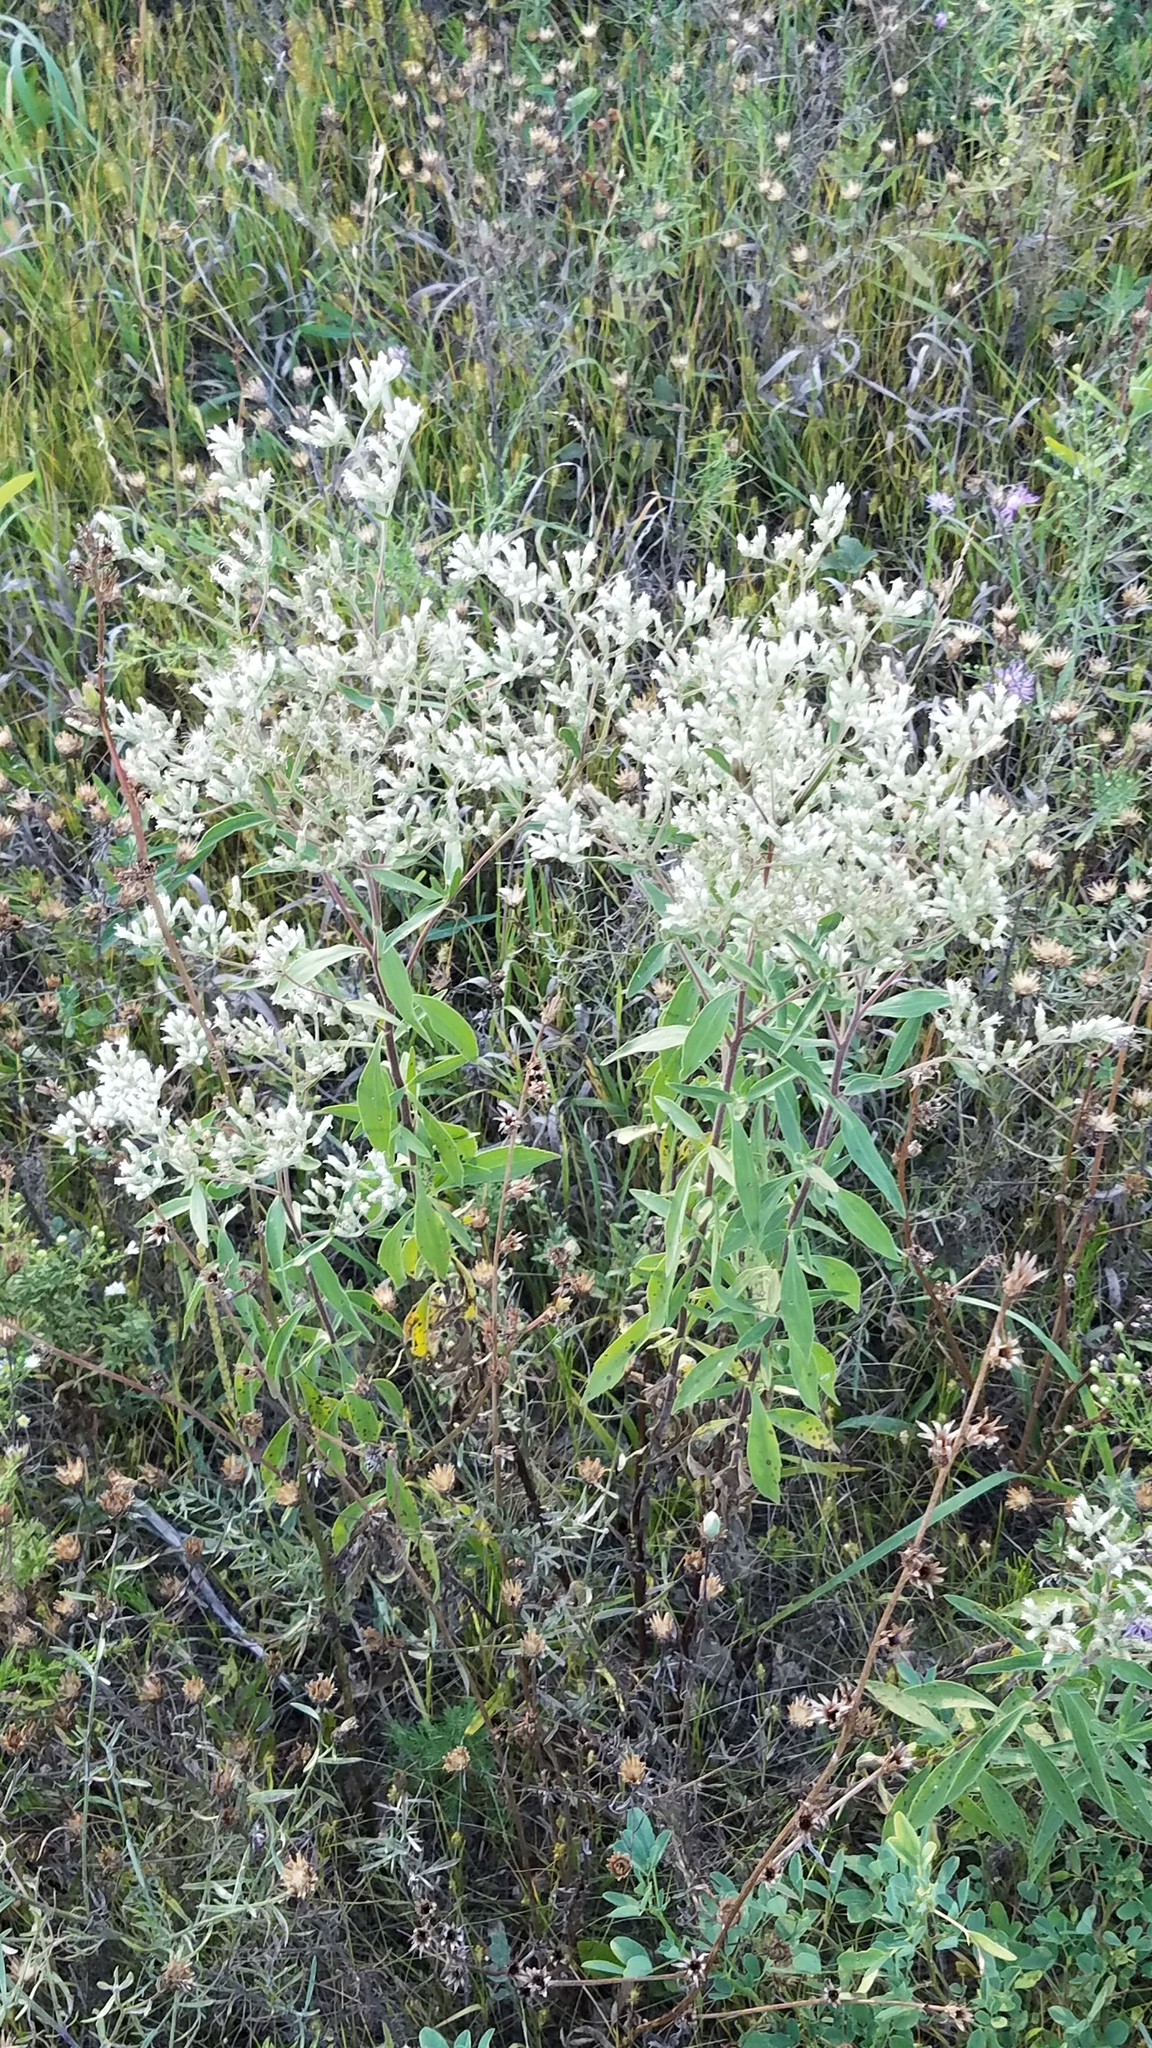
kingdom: Plantae
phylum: Tracheophyta
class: Magnoliopsida
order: Asterales
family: Asteraceae
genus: Eupatorium
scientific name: Eupatorium altissimum
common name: Tall thoroughwort
